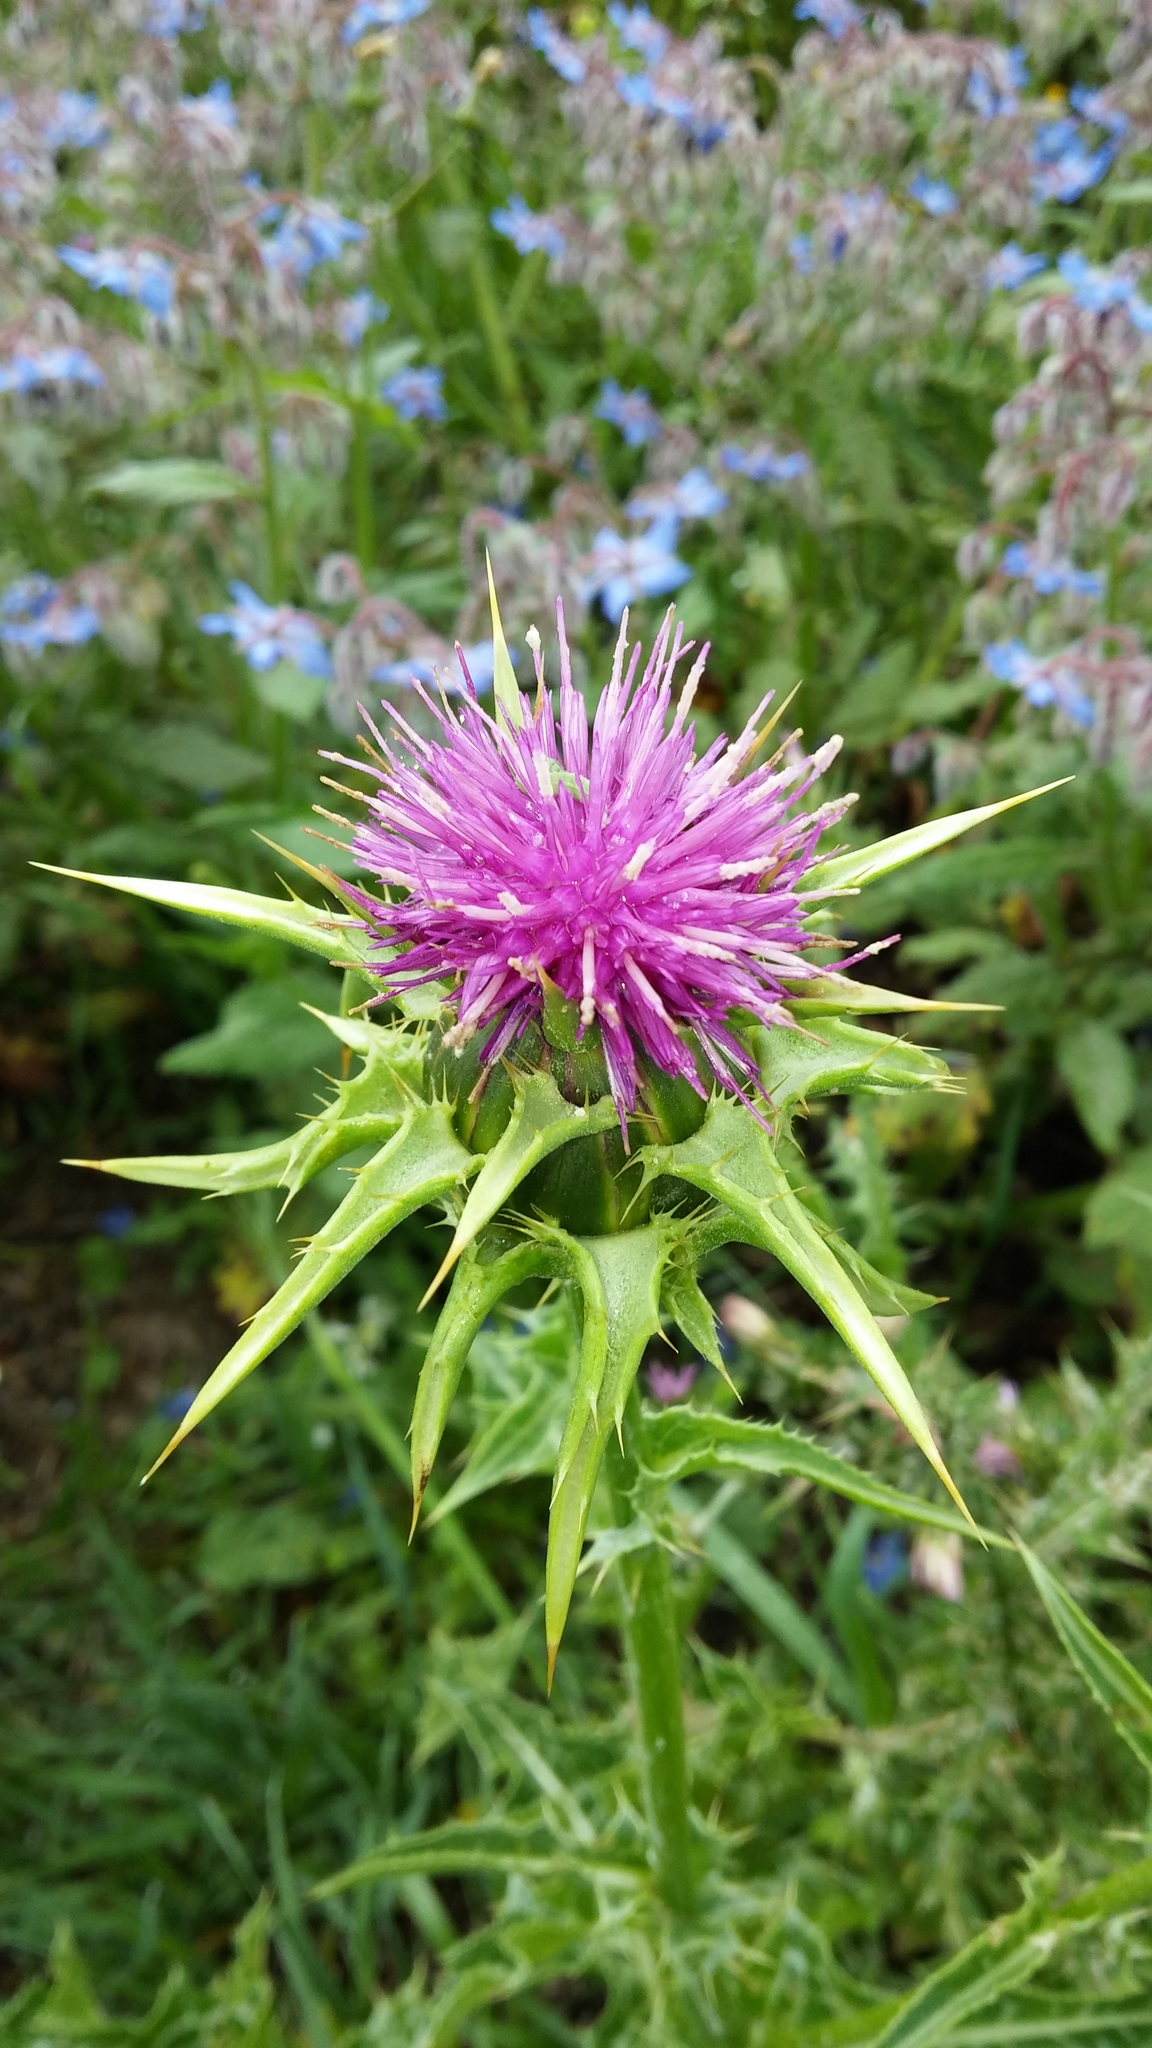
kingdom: Plantae
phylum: Tracheophyta
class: Magnoliopsida
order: Asterales
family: Asteraceae
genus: Silybum
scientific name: Silybum marianum
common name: Milk thistle
